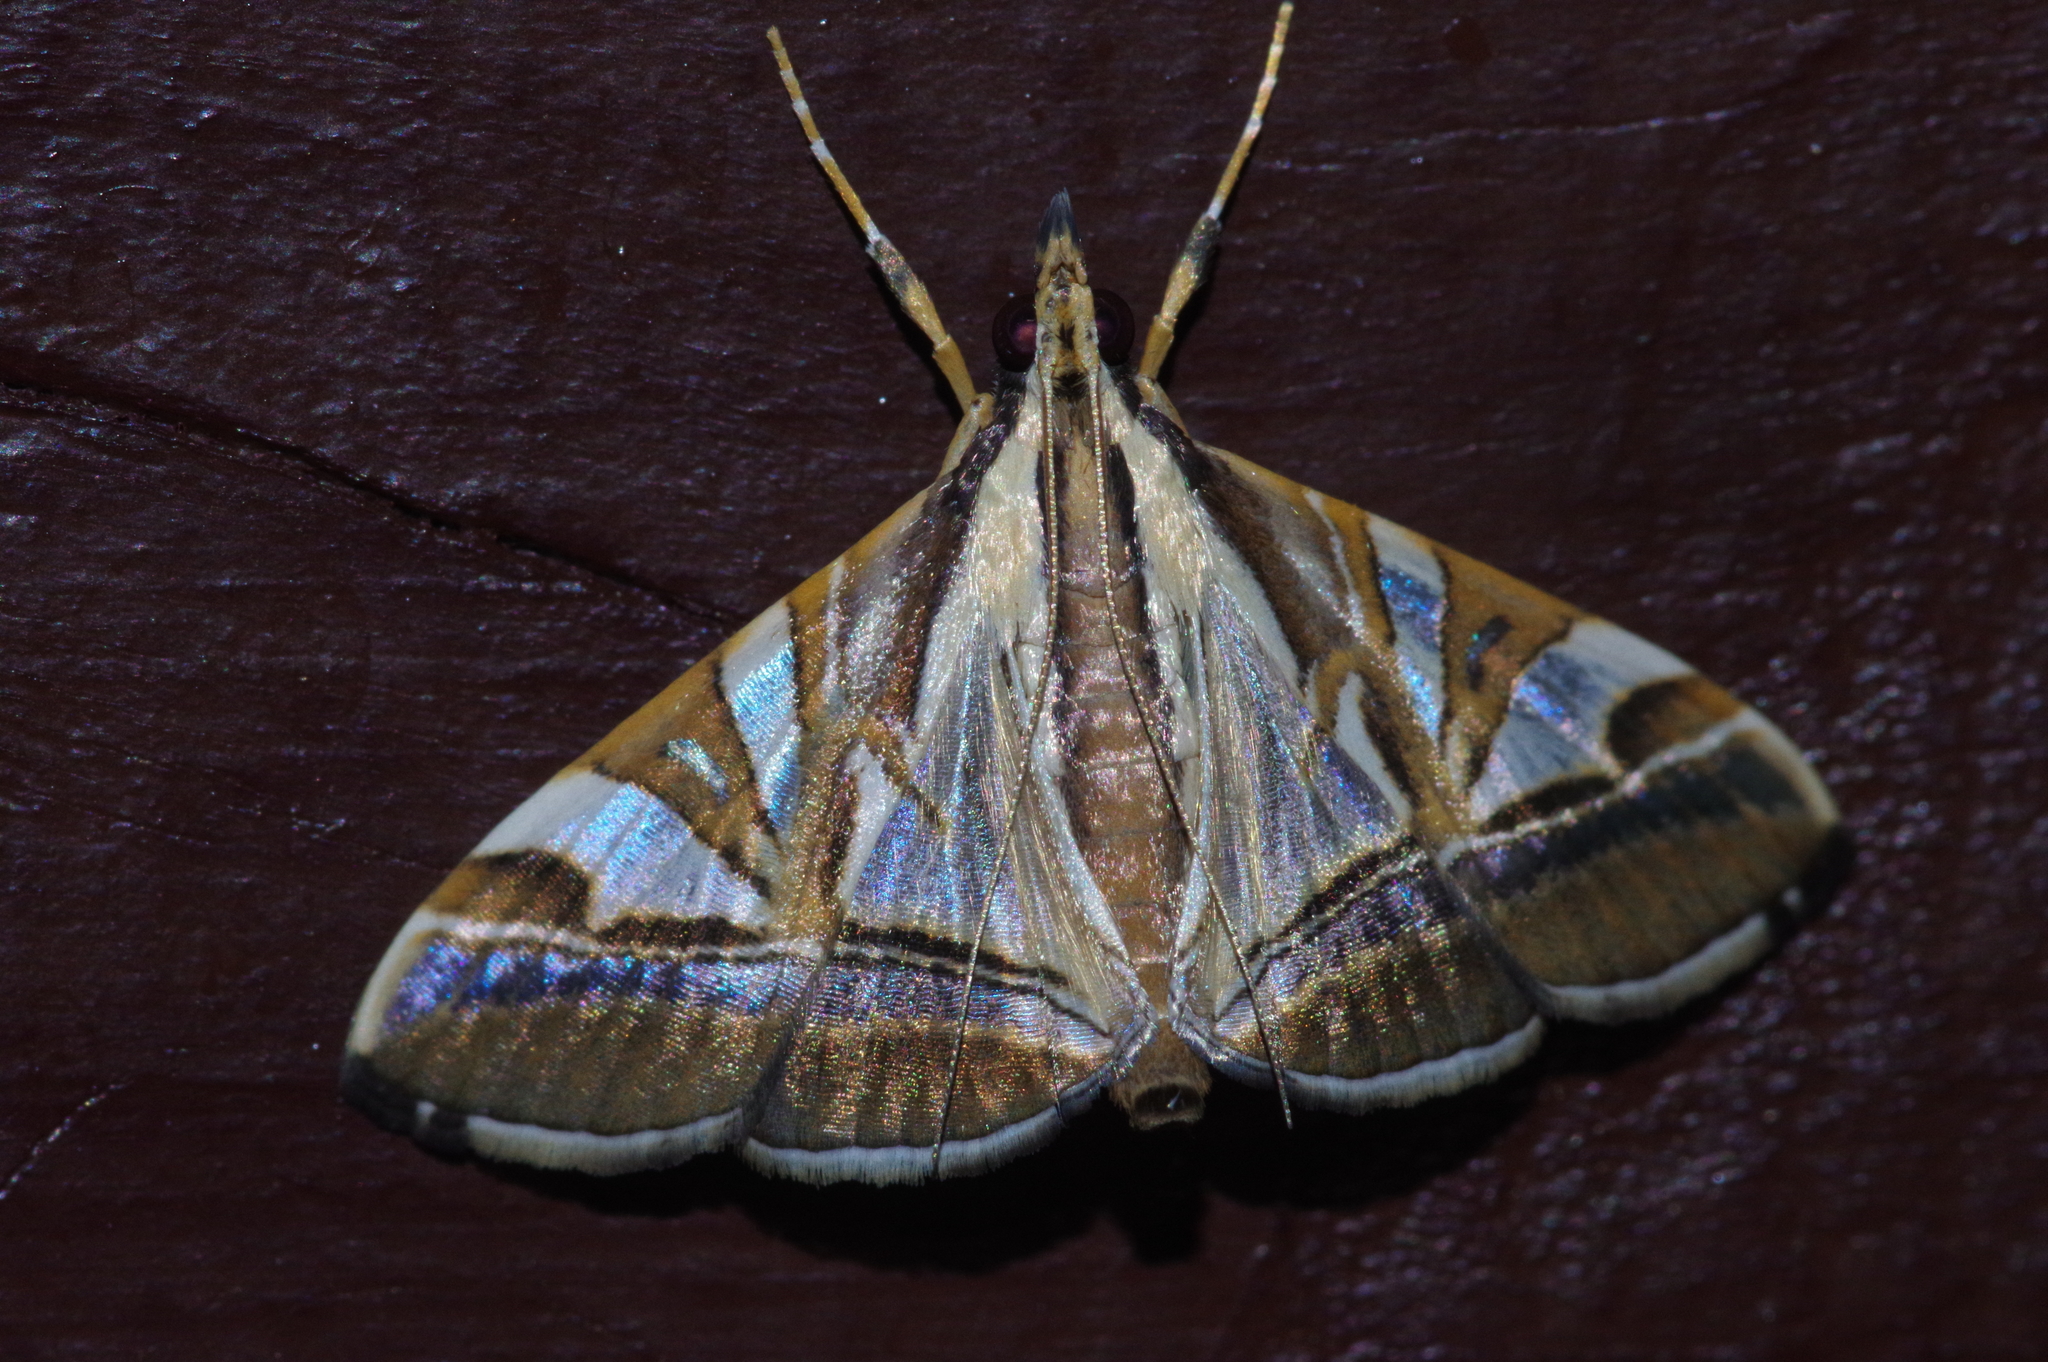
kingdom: Animalia
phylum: Arthropoda
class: Insecta
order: Lepidoptera
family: Crambidae
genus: Agrioglypta
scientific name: Agrioglypta itysalis
